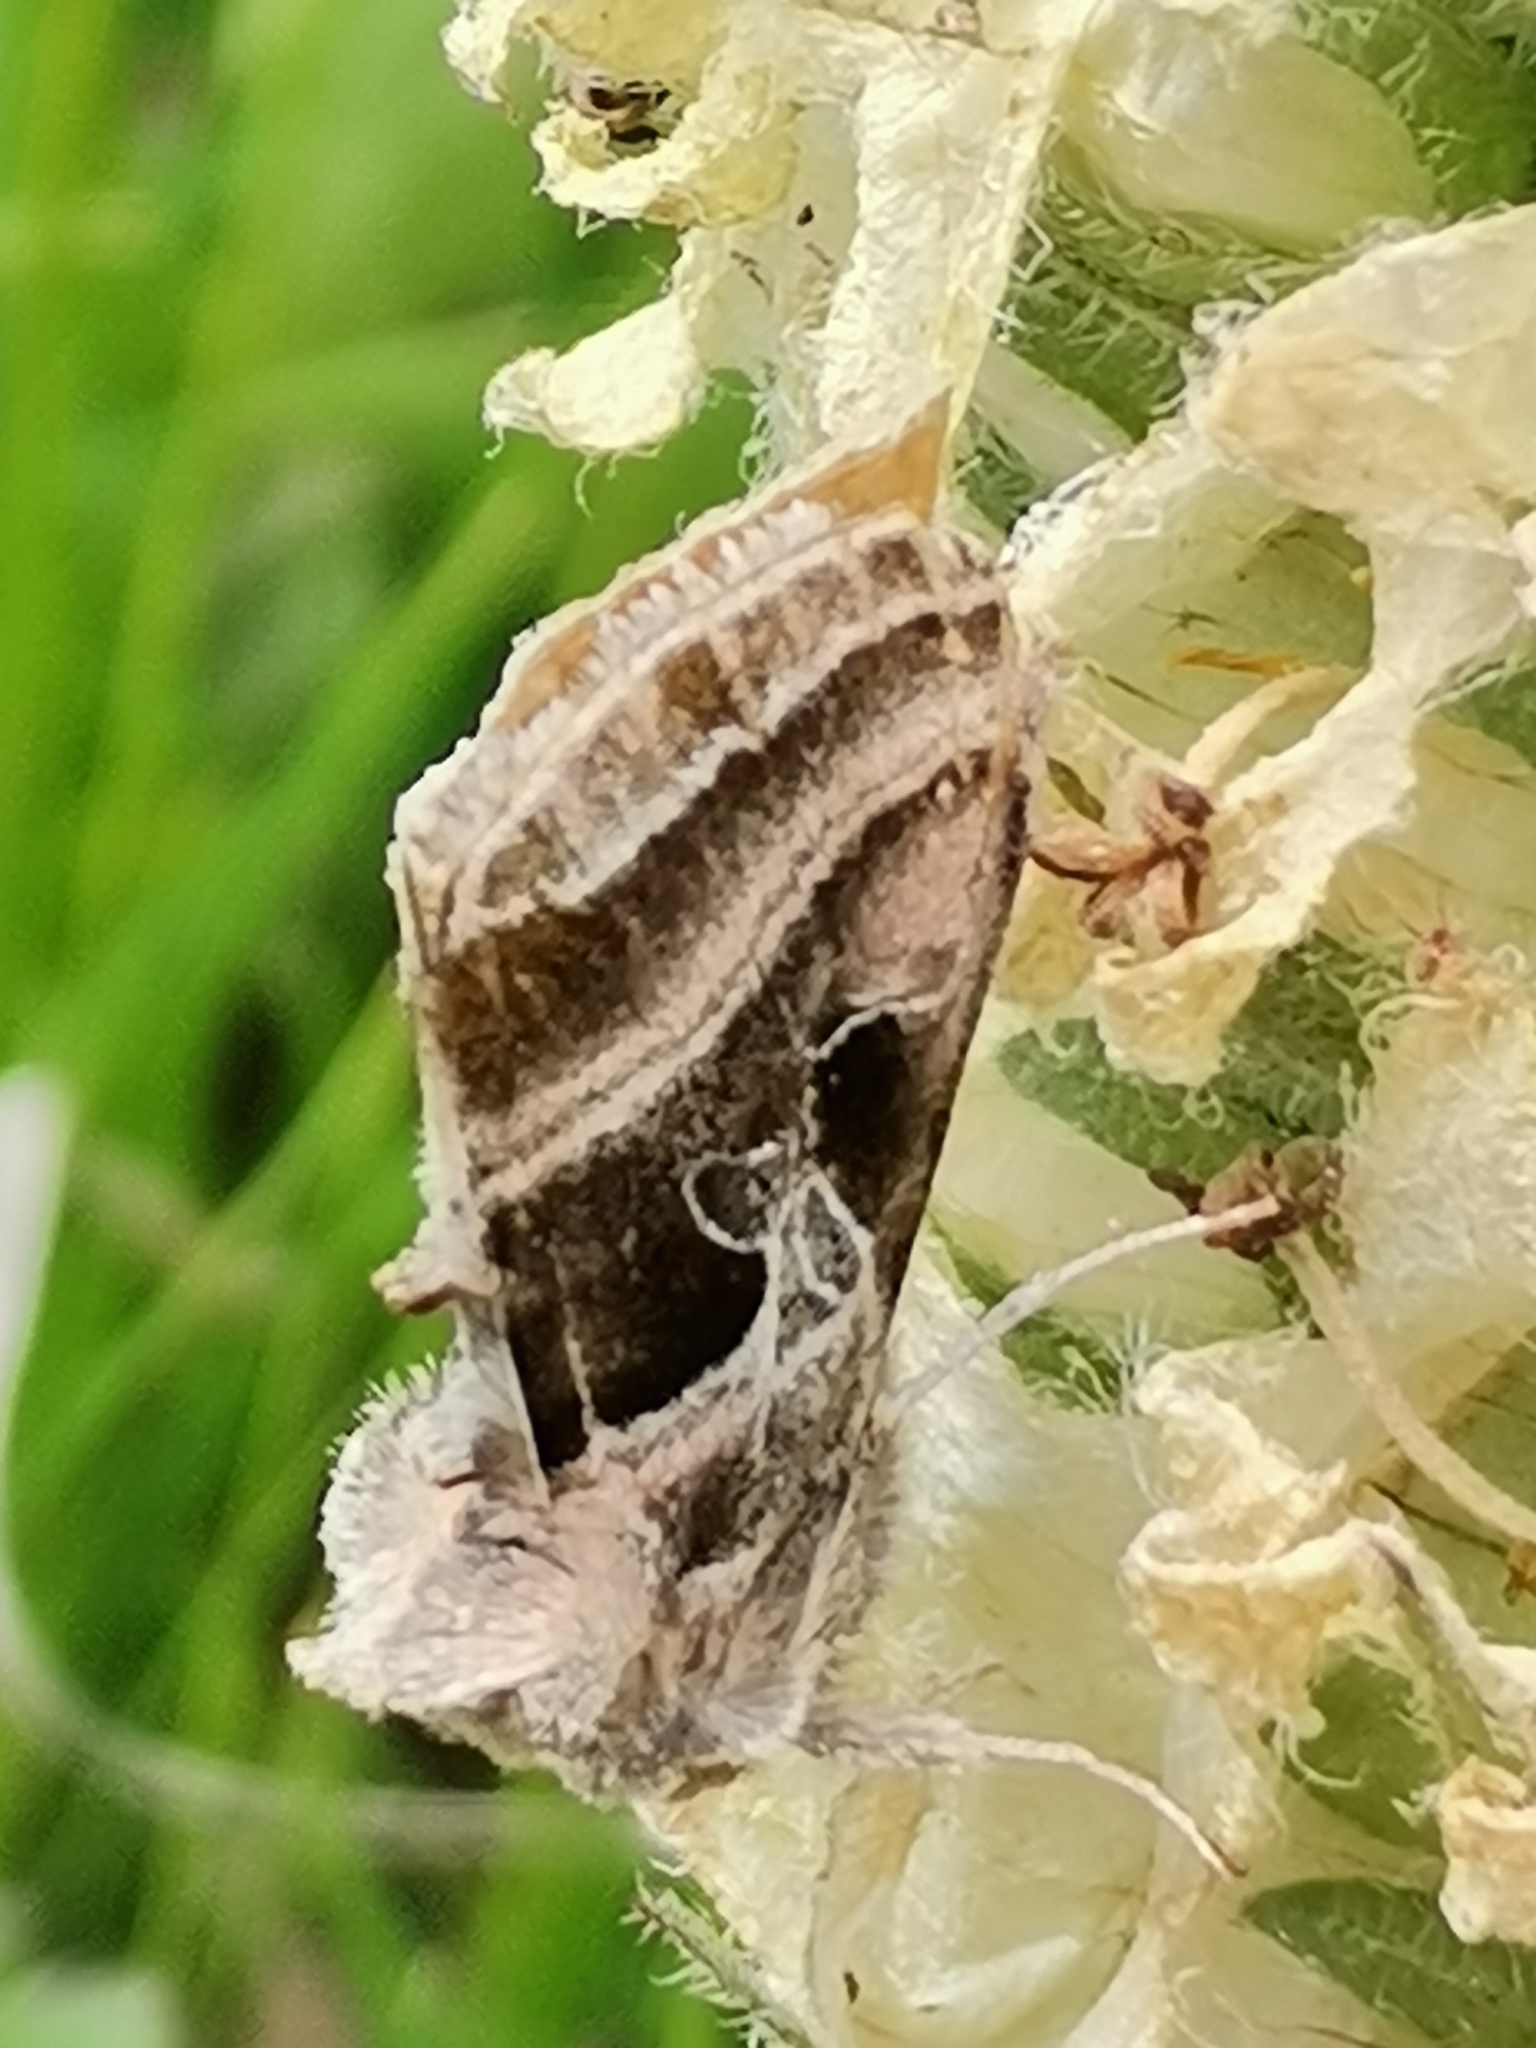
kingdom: Animalia
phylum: Arthropoda
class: Insecta
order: Lepidoptera
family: Noctuidae
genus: Euchalcia
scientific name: Euchalcia variabilis
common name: Purple-shaded gem
